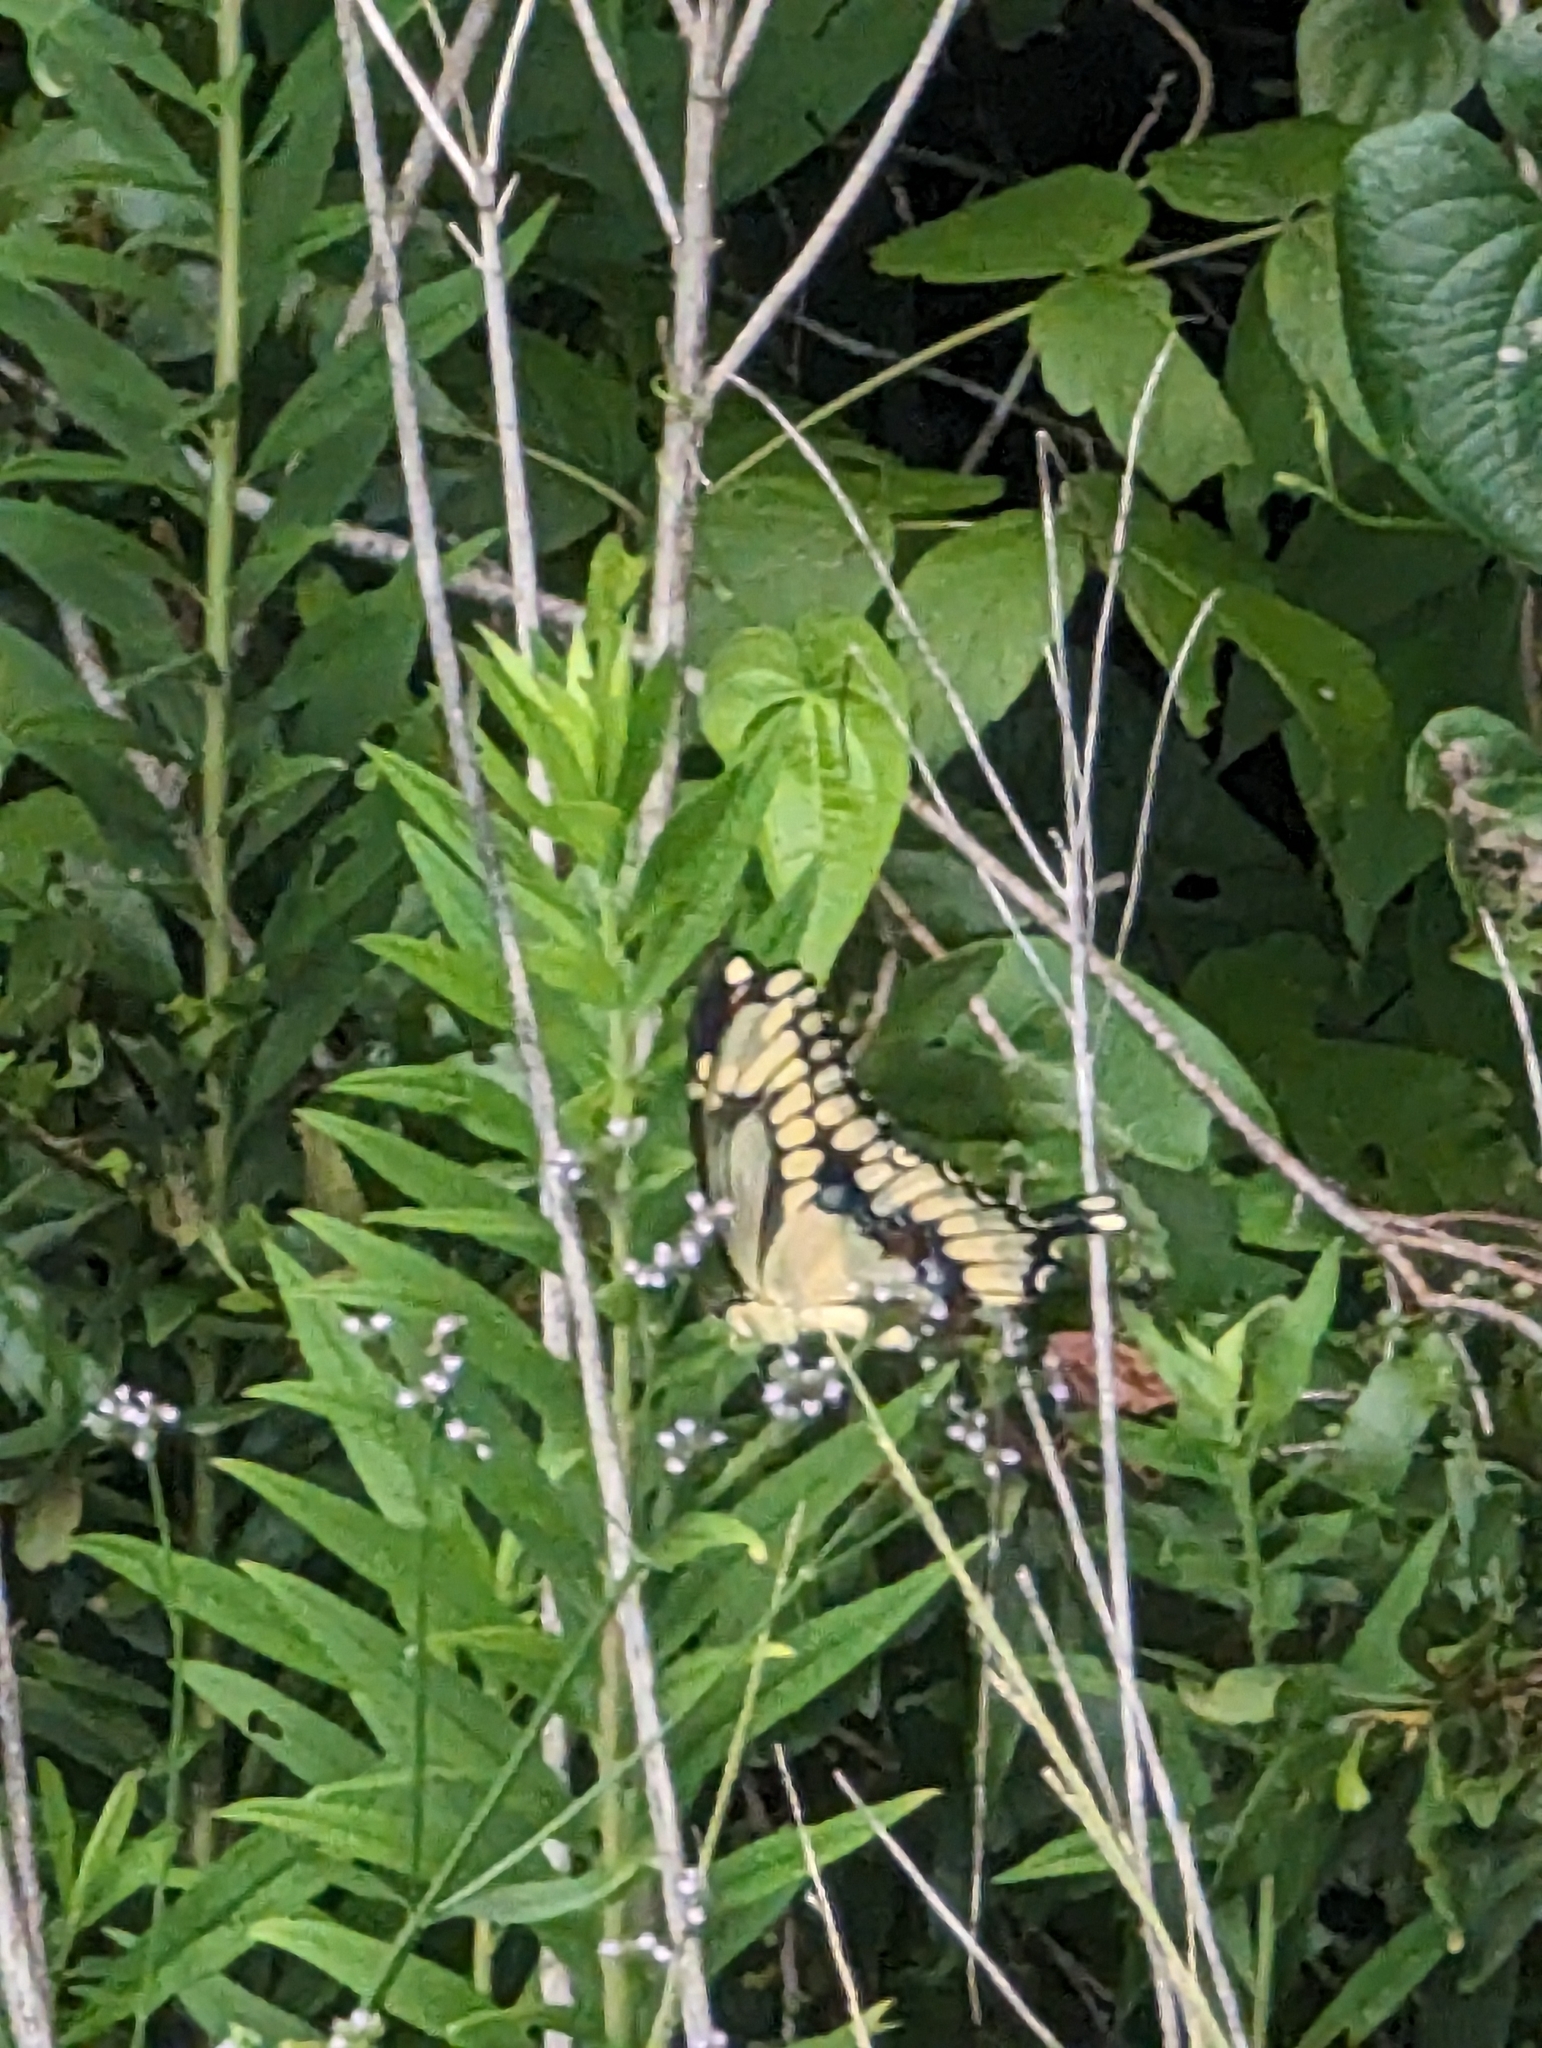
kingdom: Animalia
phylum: Arthropoda
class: Insecta
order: Lepidoptera
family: Papilionidae
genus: Papilio
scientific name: Papilio cresphontes
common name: Giant swallowtail
